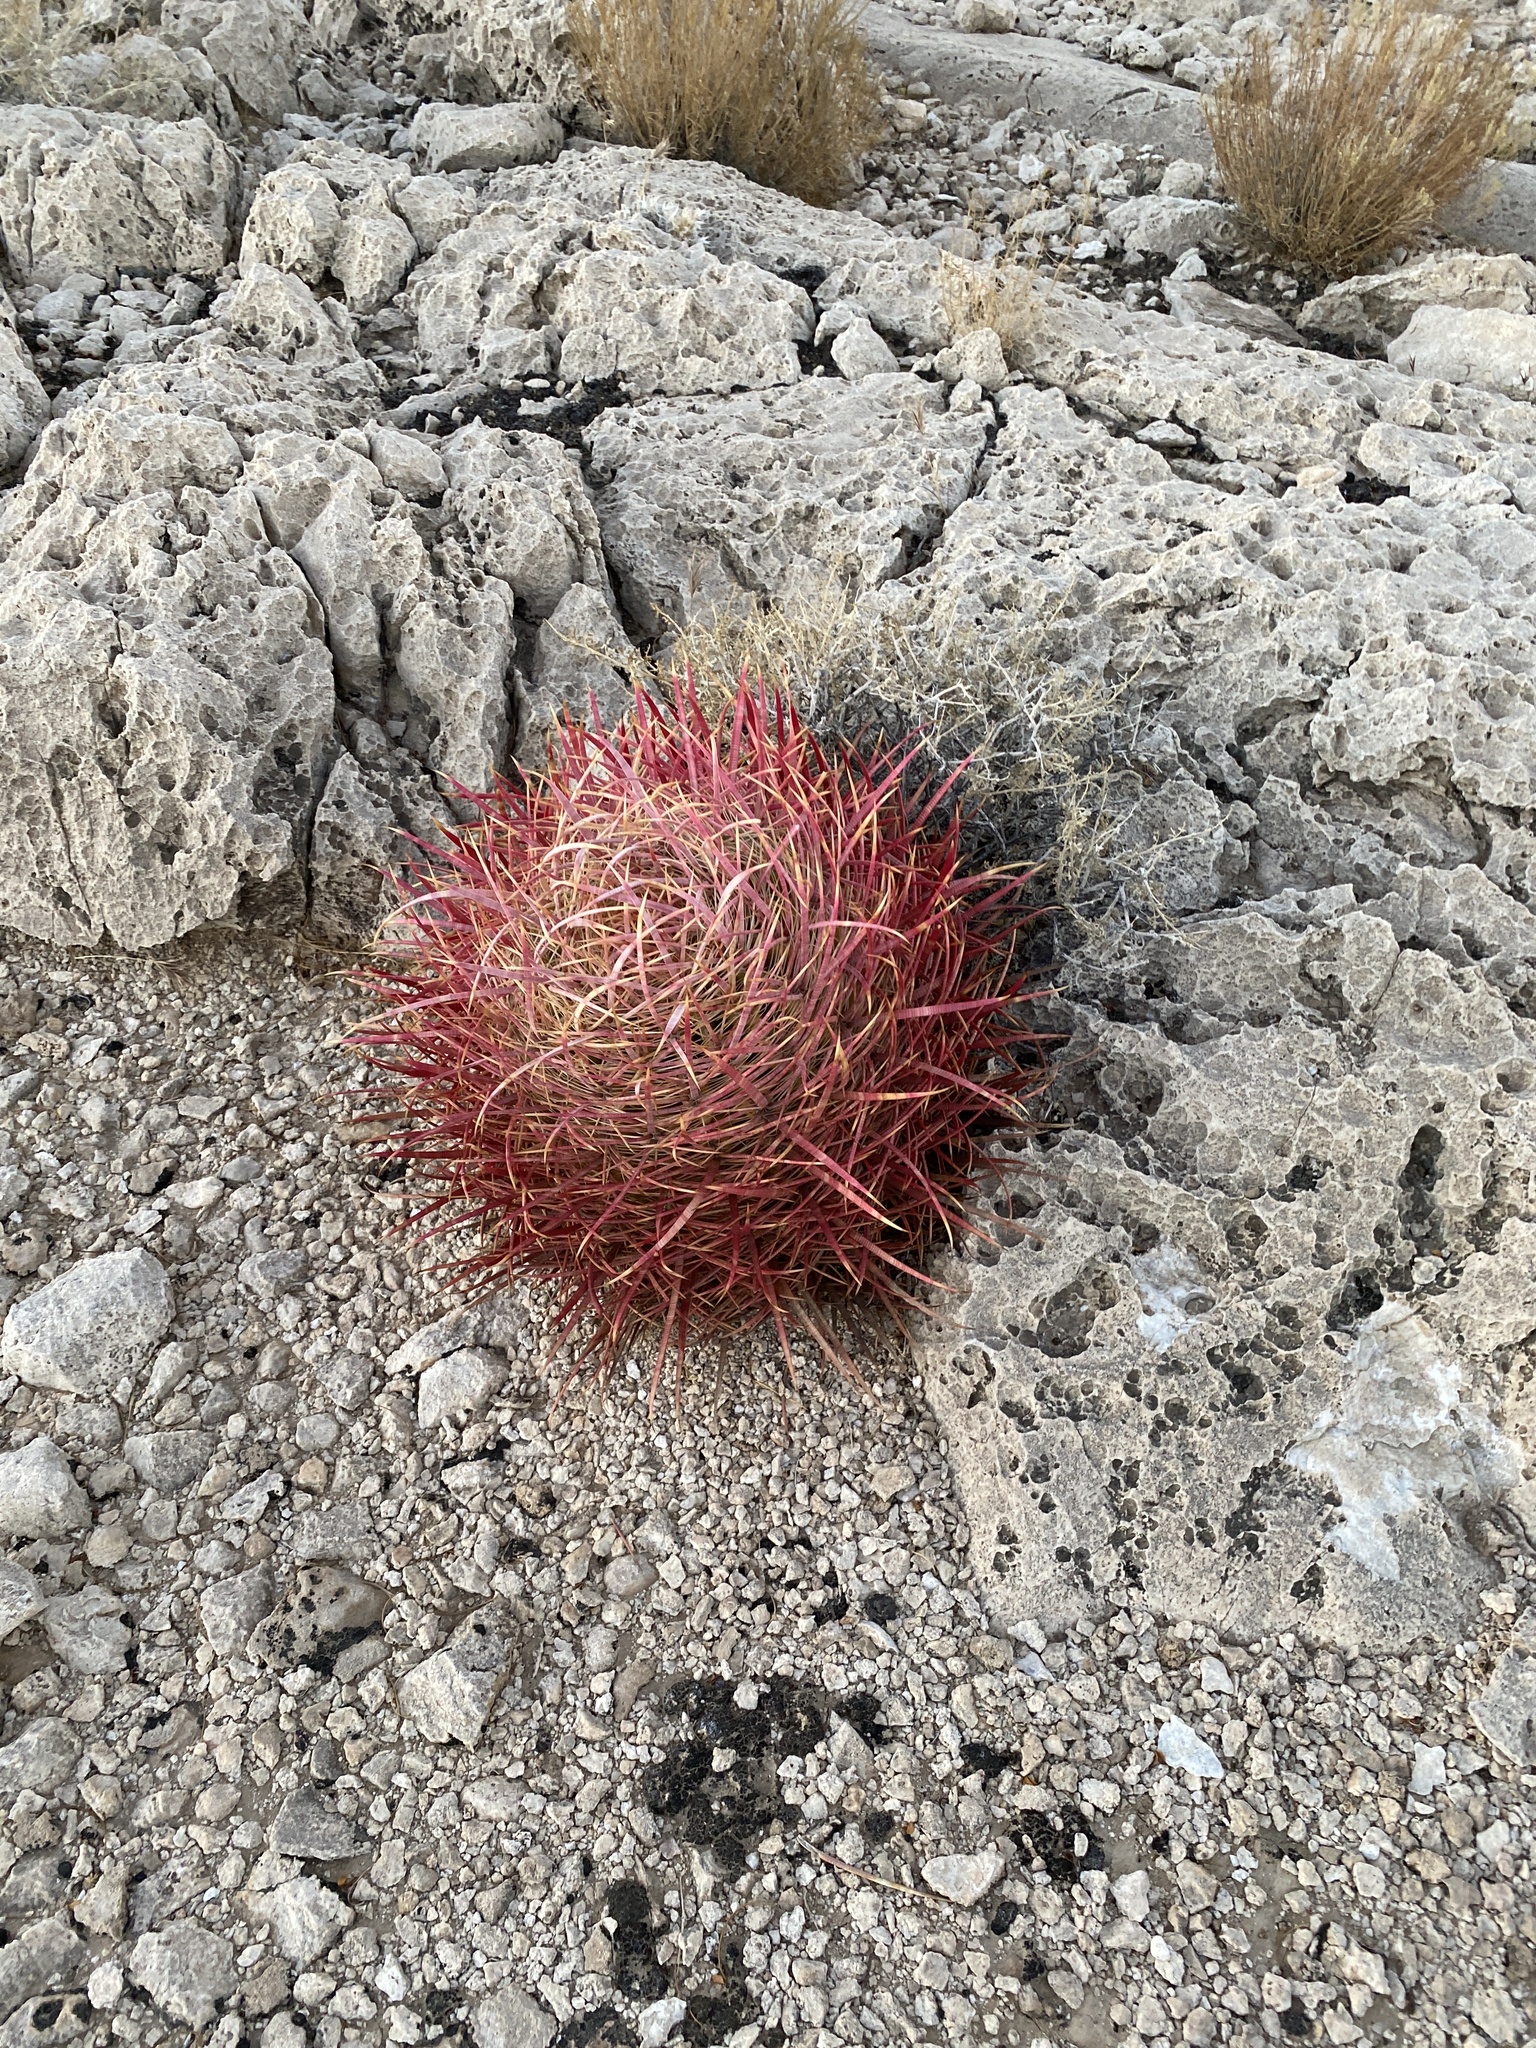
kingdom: Plantae
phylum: Tracheophyta
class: Magnoliopsida
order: Caryophyllales
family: Cactaceae
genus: Ferocactus
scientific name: Ferocactus cylindraceus
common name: California barrel cactus
